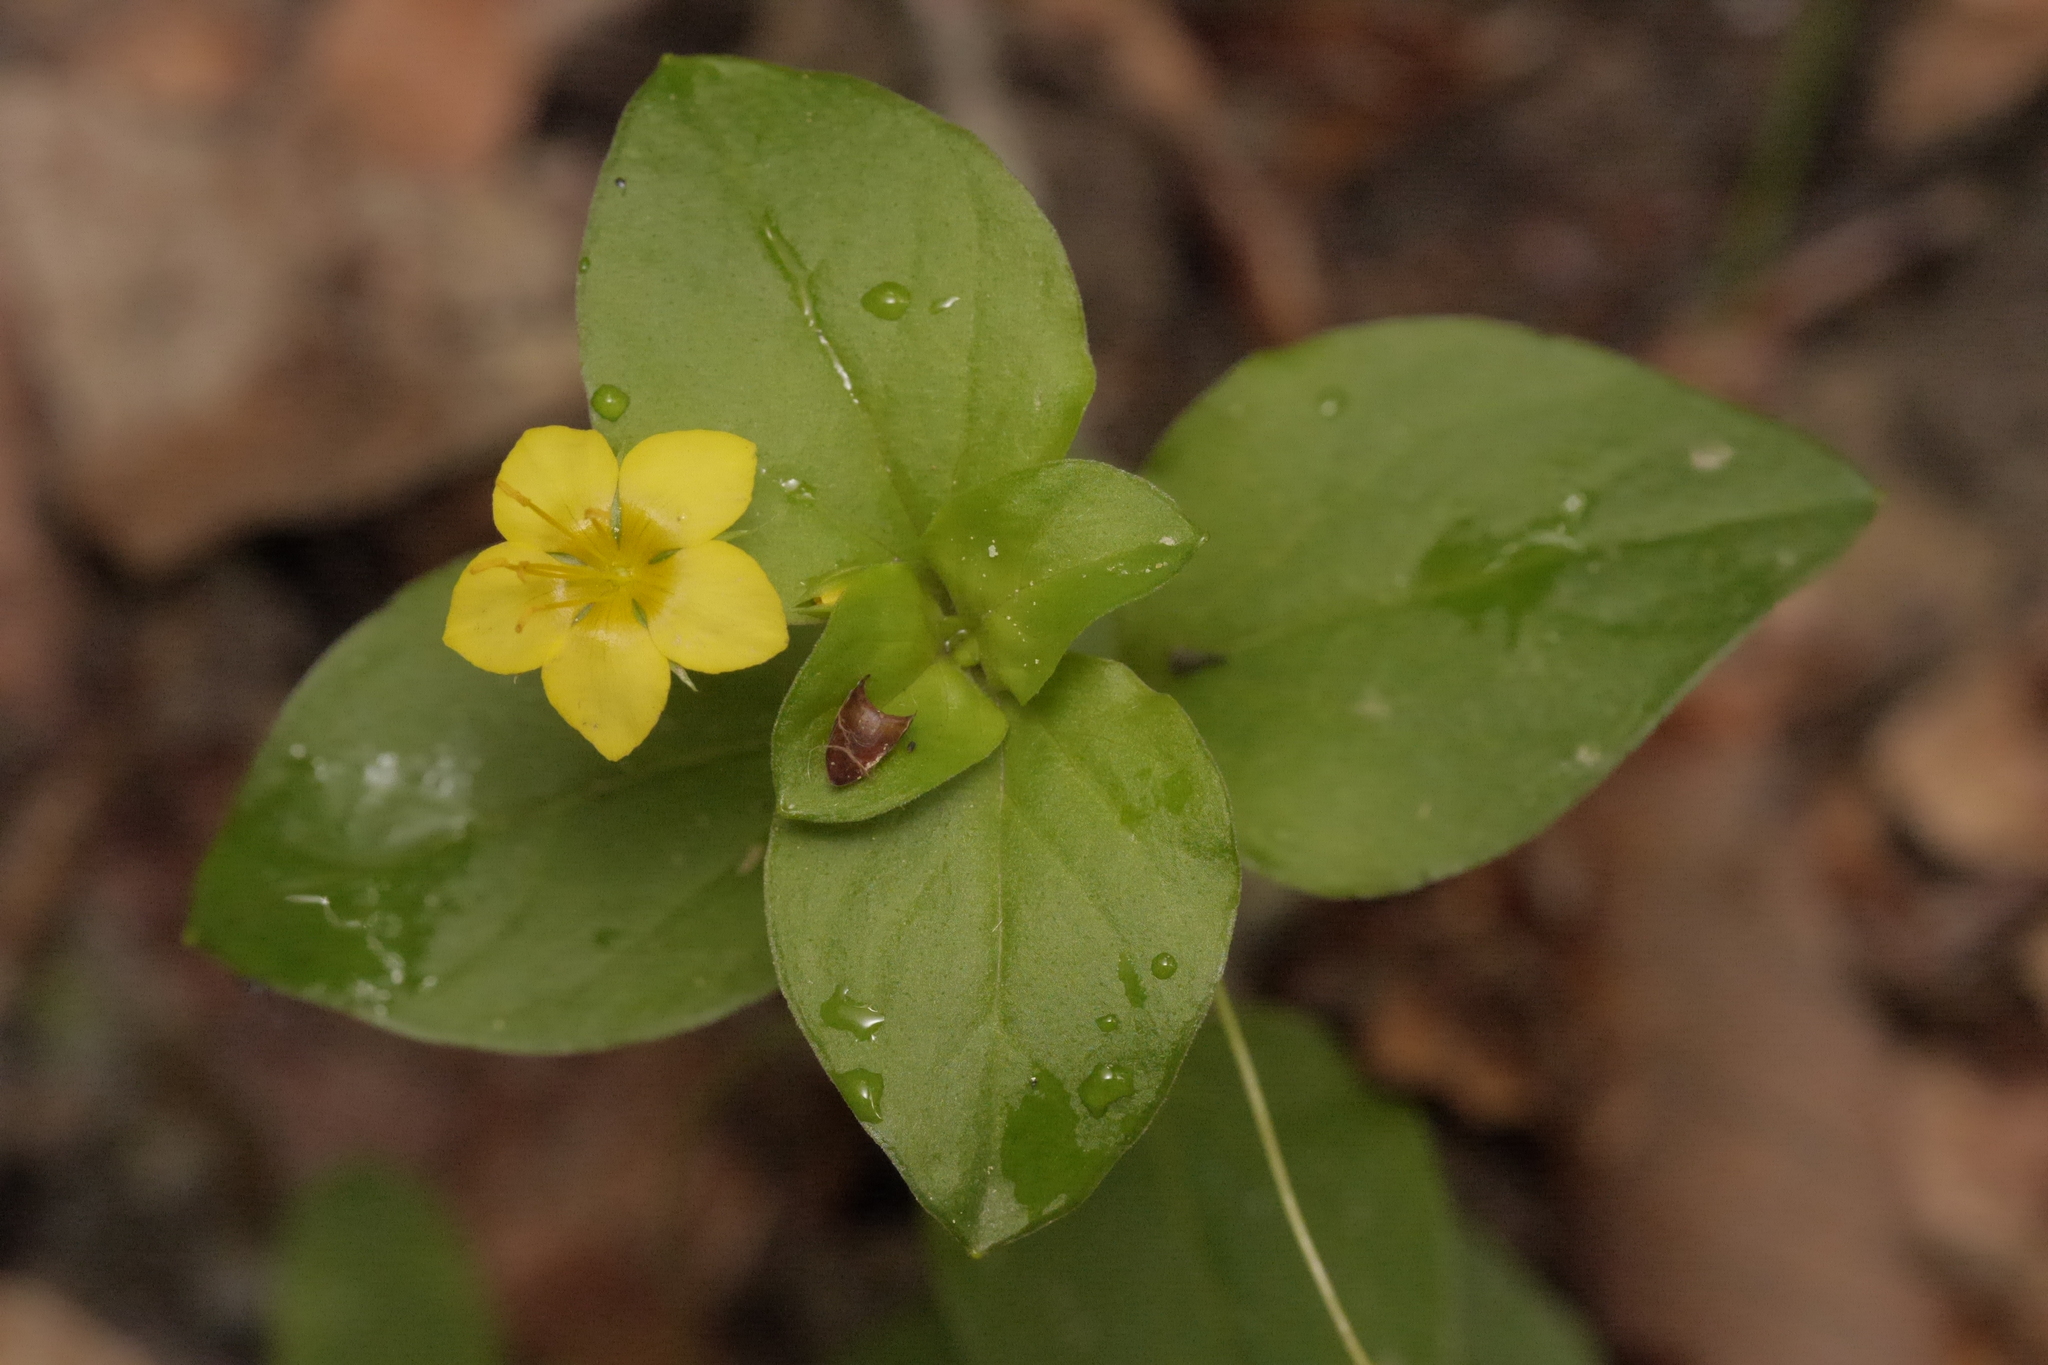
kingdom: Plantae
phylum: Tracheophyta
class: Magnoliopsida
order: Ericales
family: Primulaceae
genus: Lysimachia
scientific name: Lysimachia nemorum
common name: Yellow pimpernel
